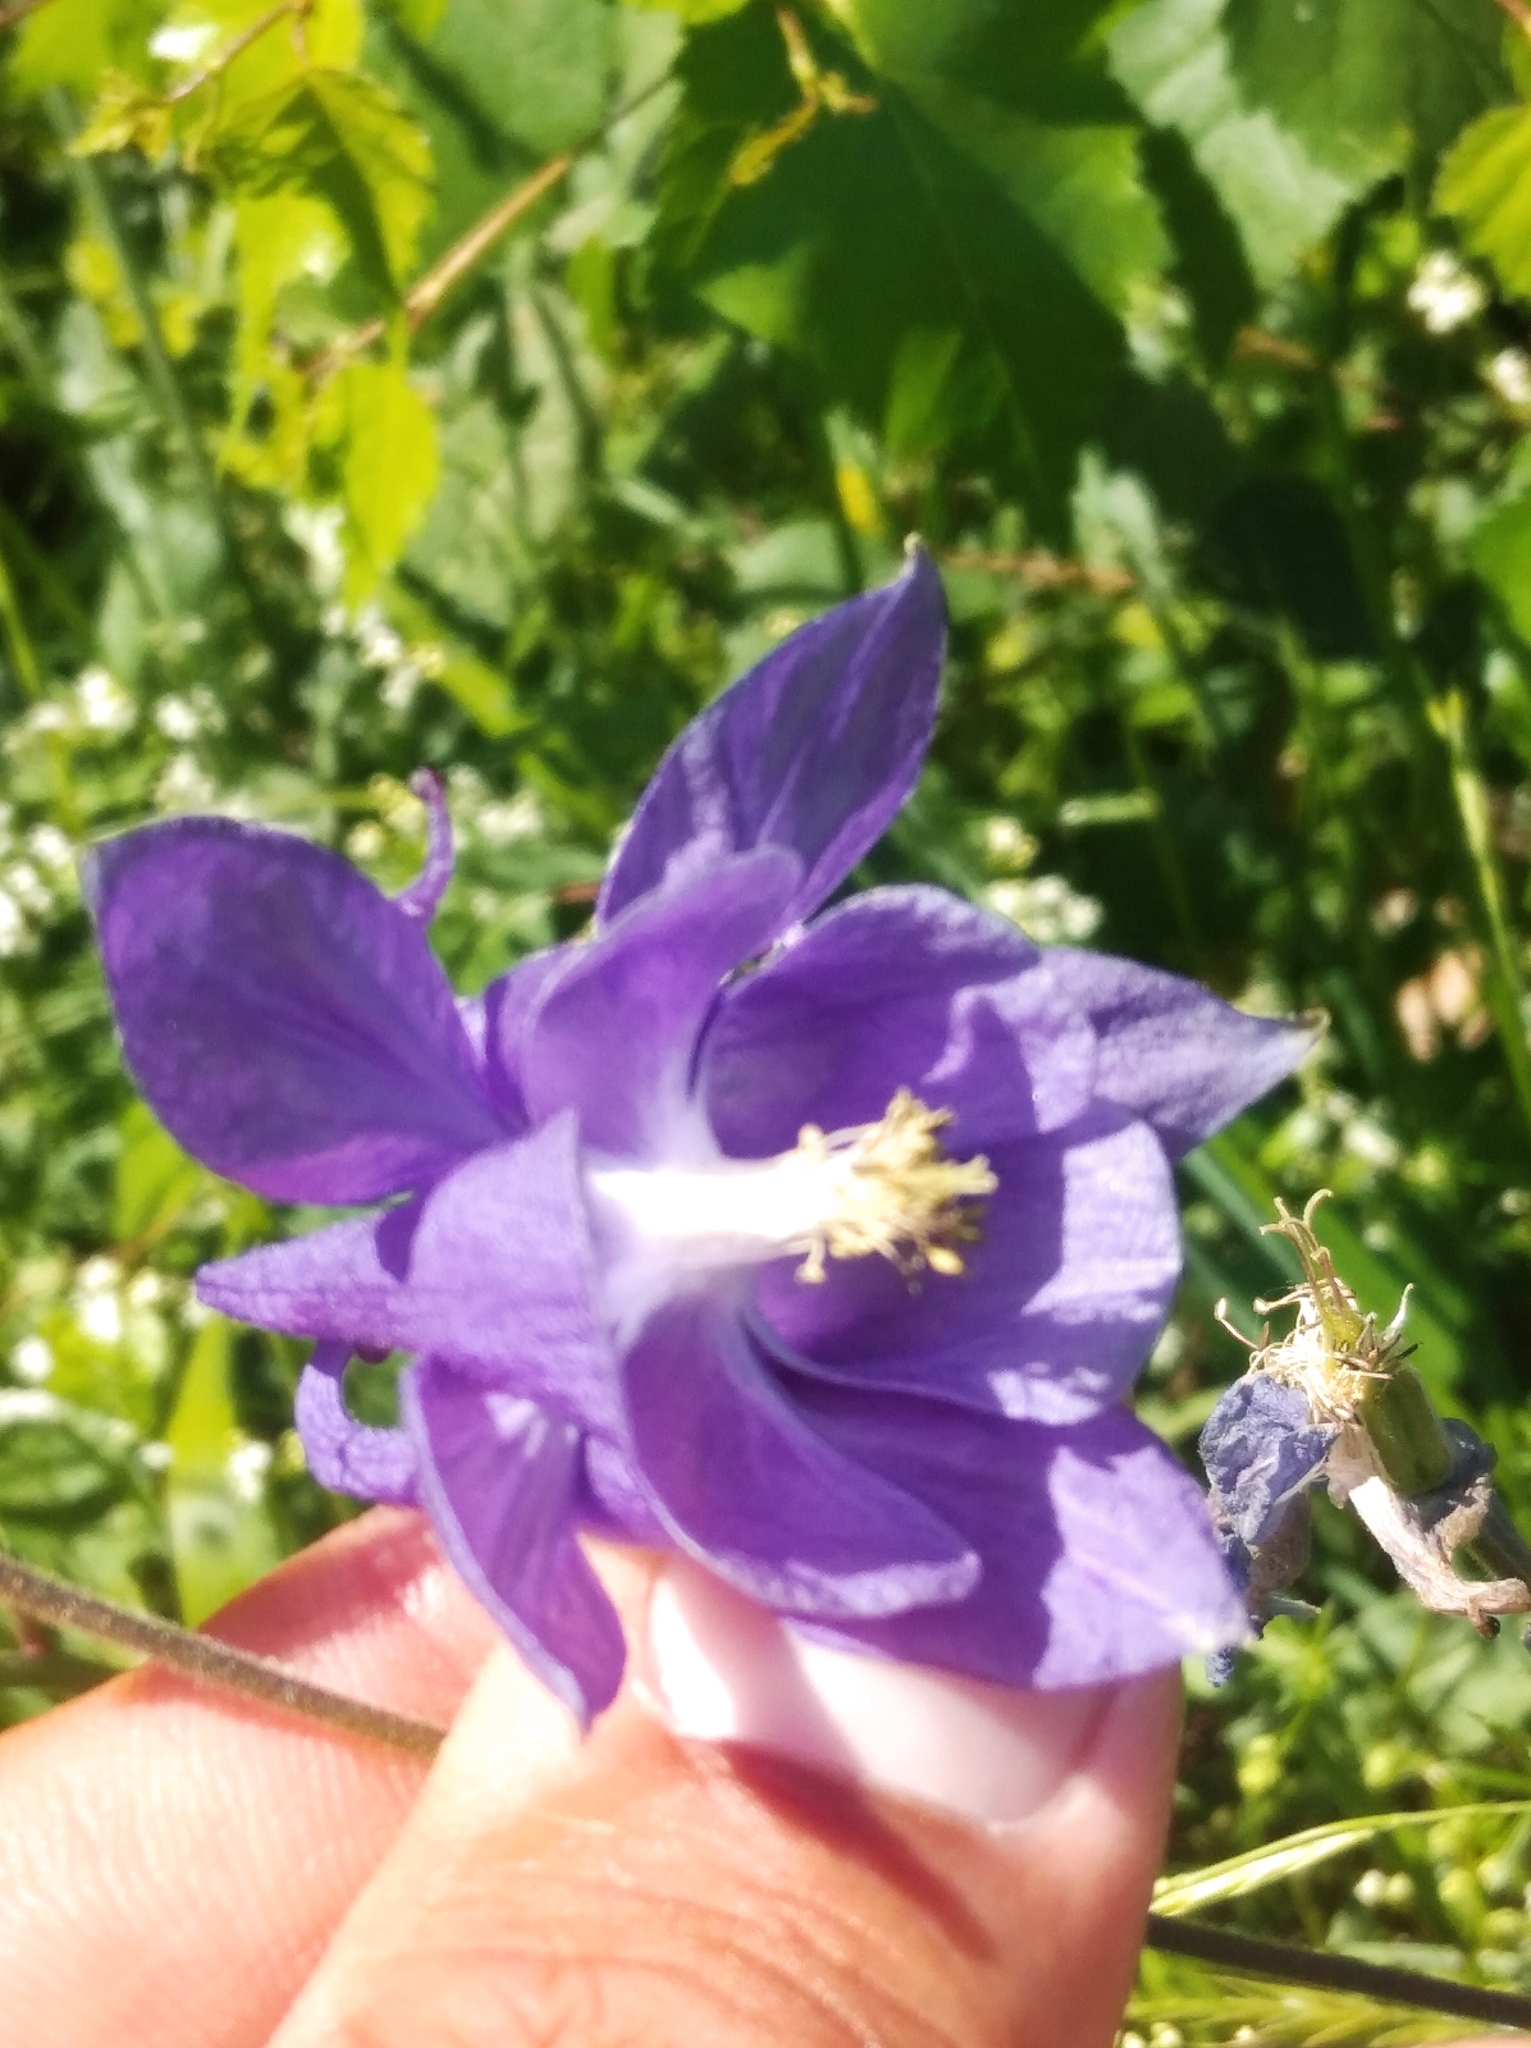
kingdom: Plantae
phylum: Tracheophyta
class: Magnoliopsida
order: Ranunculales
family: Ranunculaceae
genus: Aquilegia
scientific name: Aquilegia vulgaris
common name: Columbine
